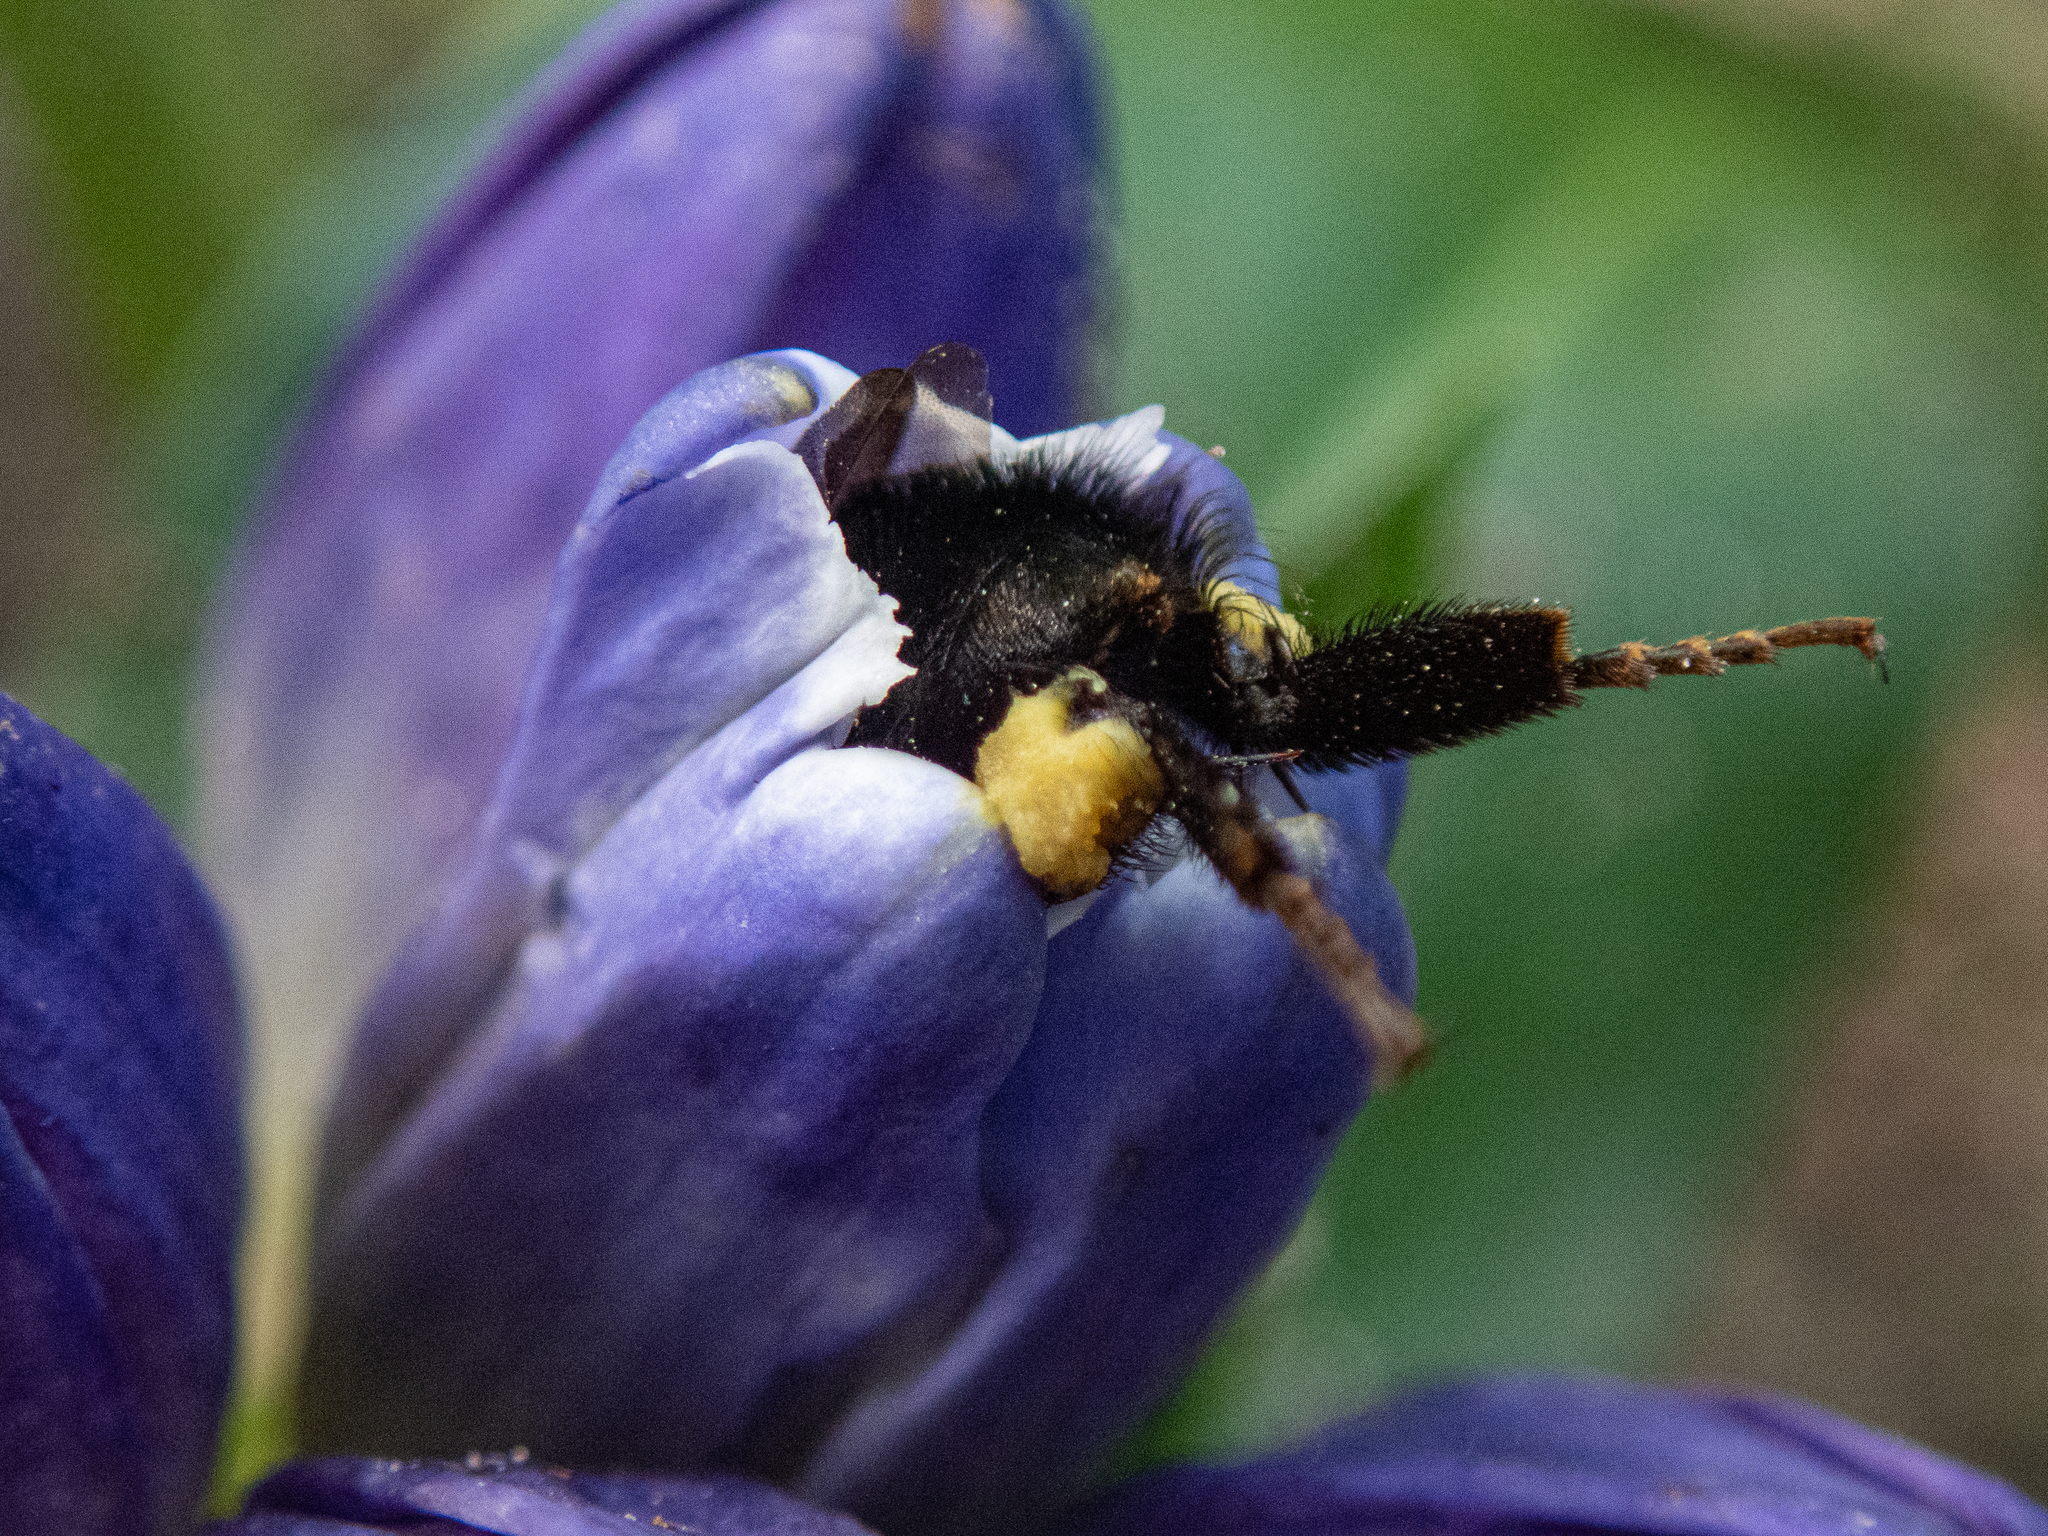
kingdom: Animalia
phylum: Arthropoda
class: Insecta
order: Hymenoptera
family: Apidae
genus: Bombus
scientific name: Bombus impatiens
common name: Common eastern bumble bee
